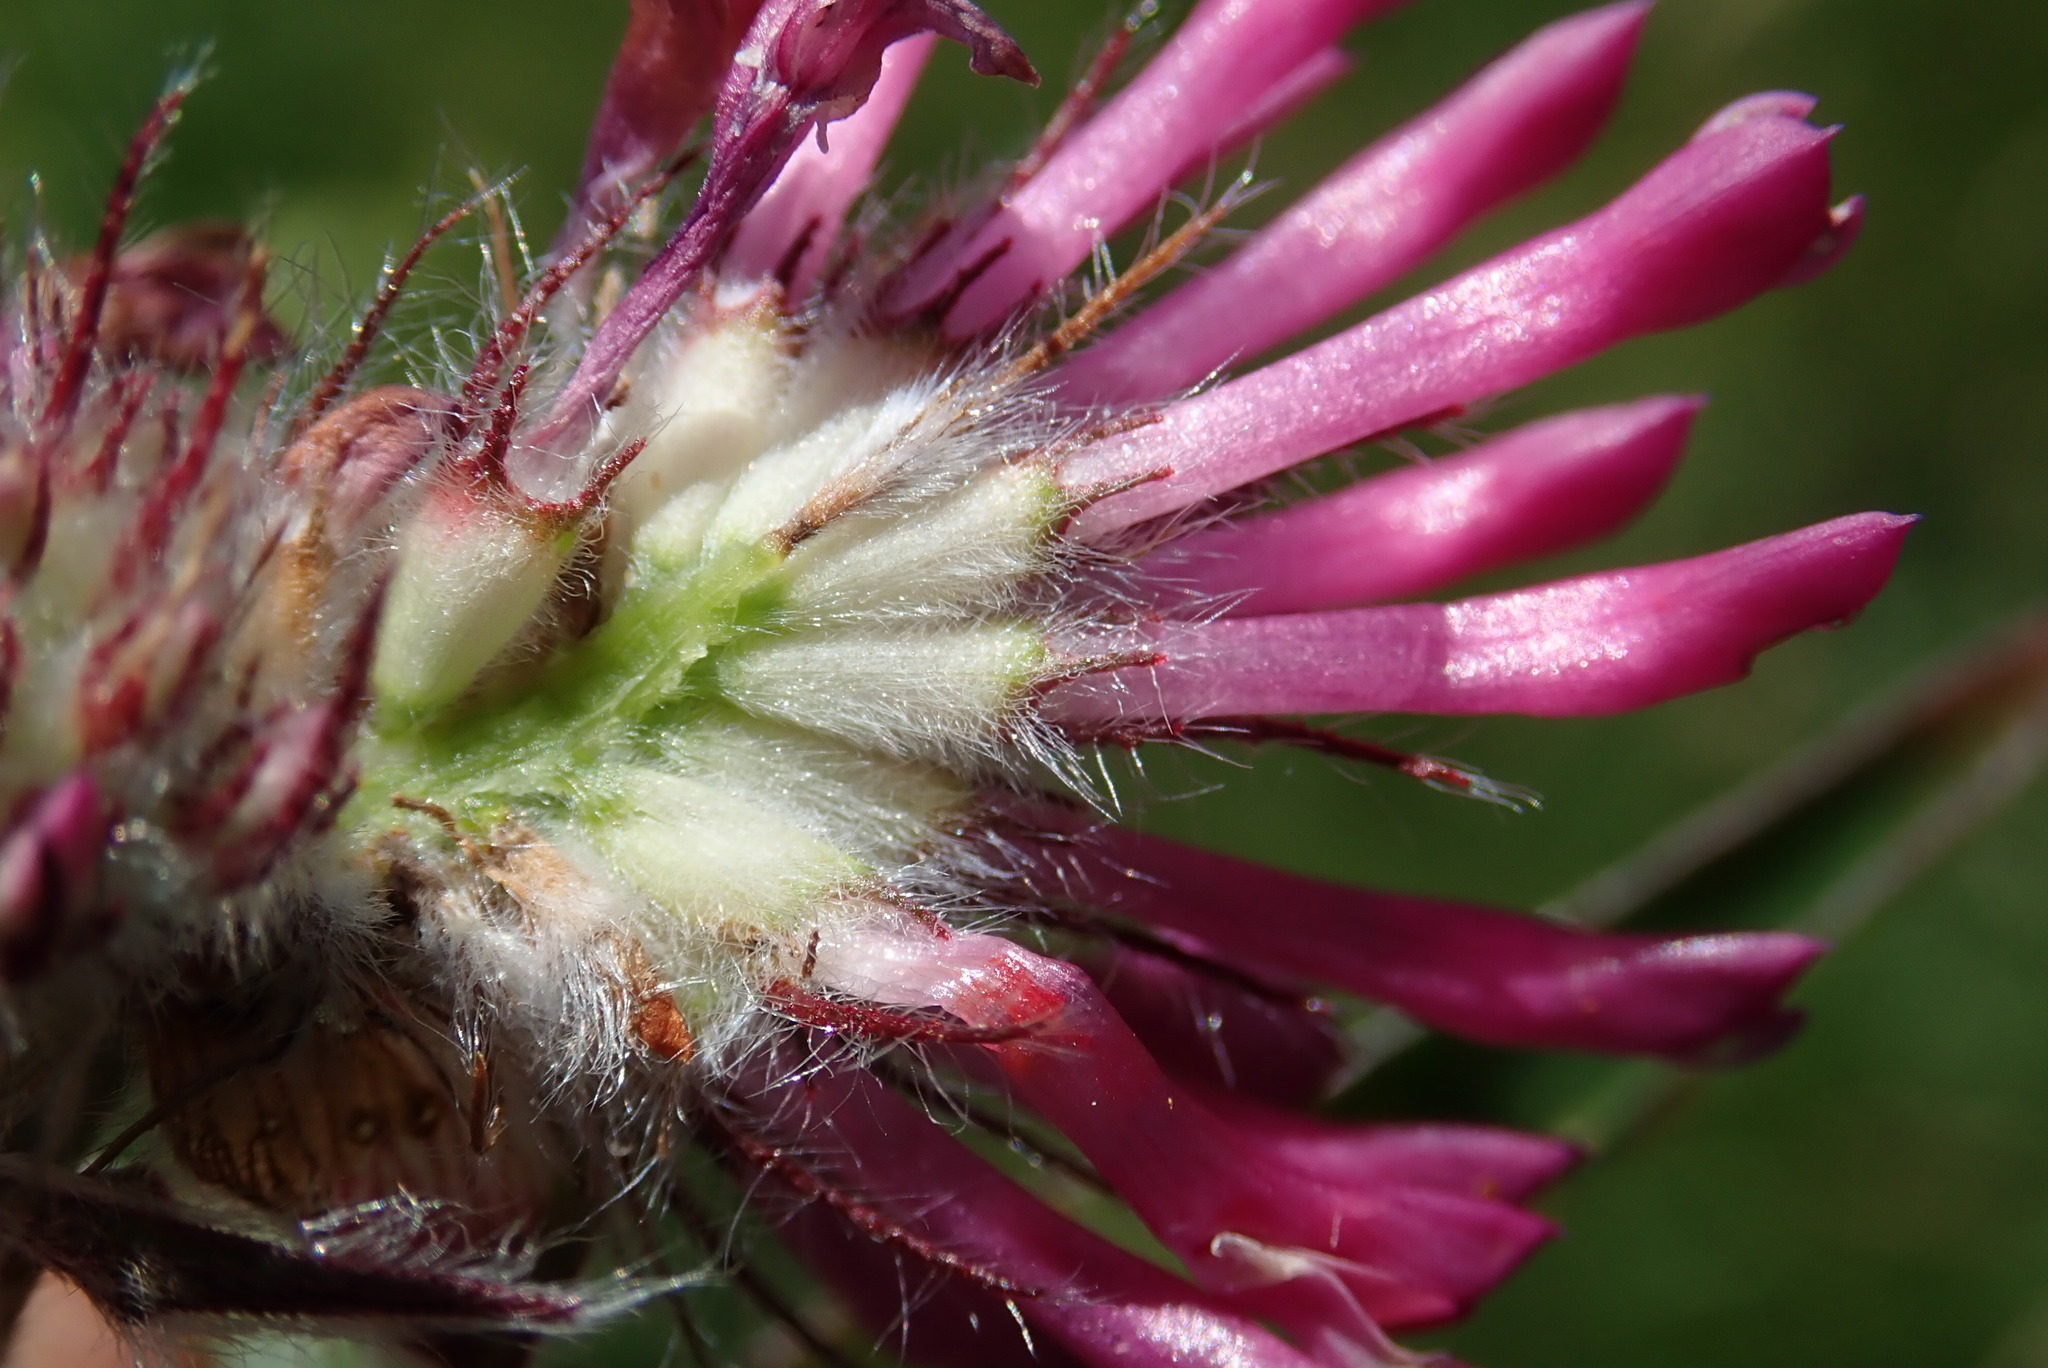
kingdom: Plantae
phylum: Tracheophyta
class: Magnoliopsida
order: Fabales
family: Fabaceae
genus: Trifolium
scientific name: Trifolium alpestre
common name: Owl-head clover
